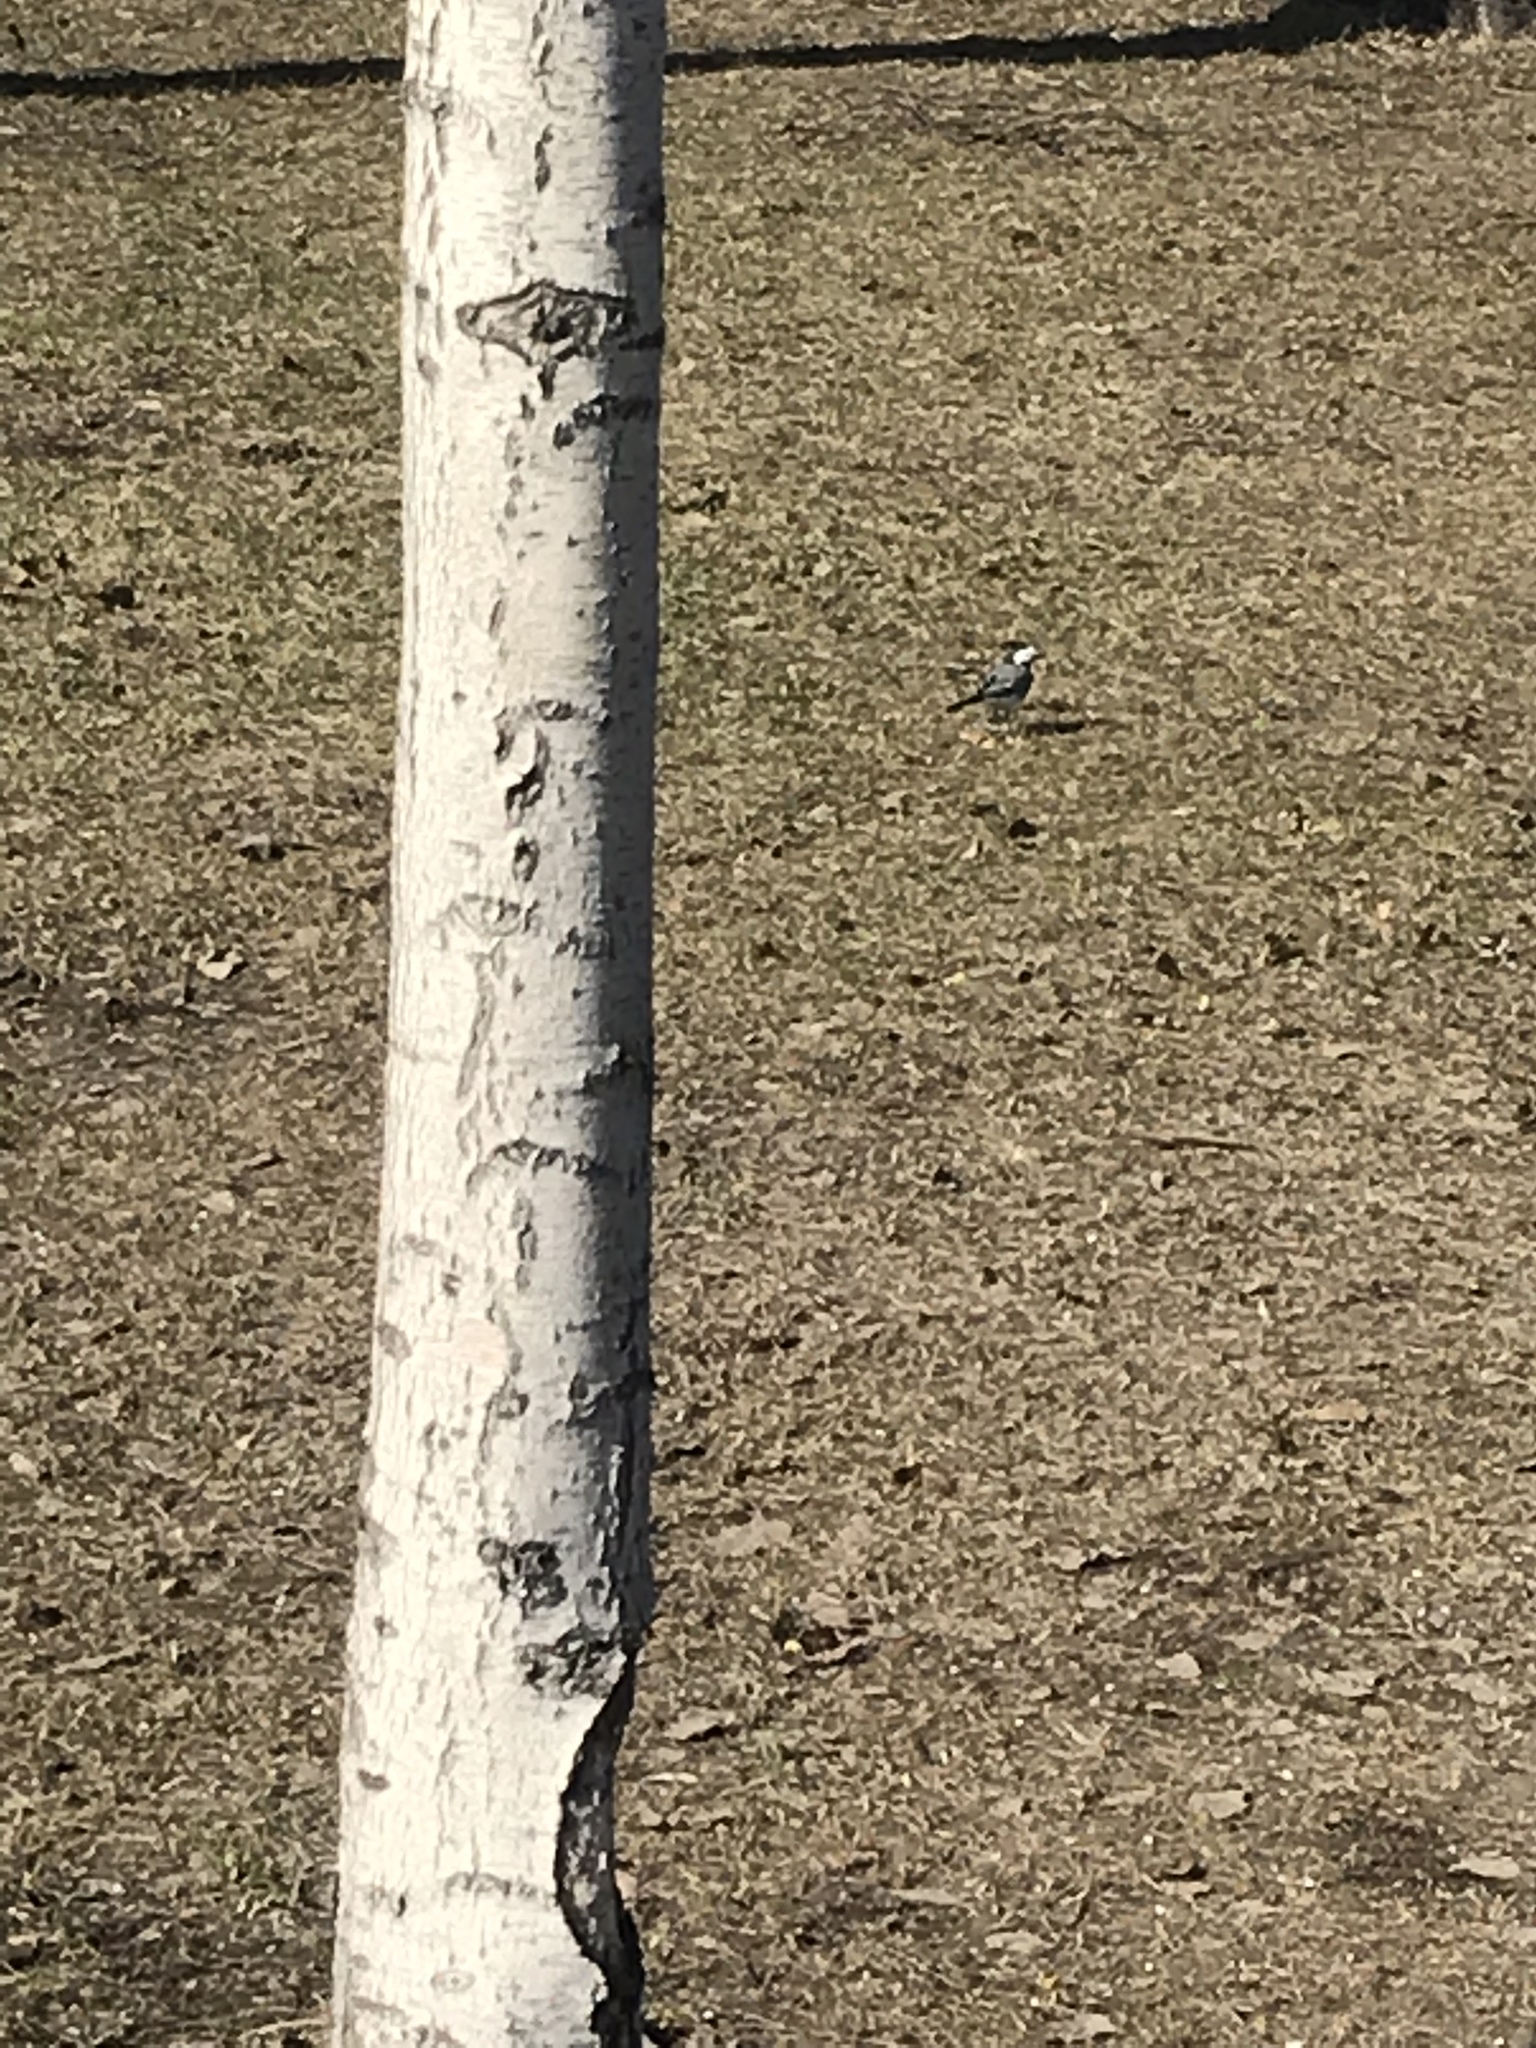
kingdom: Animalia
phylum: Chordata
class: Aves
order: Passeriformes
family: Motacillidae
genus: Motacilla
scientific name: Motacilla alba
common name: White wagtail
